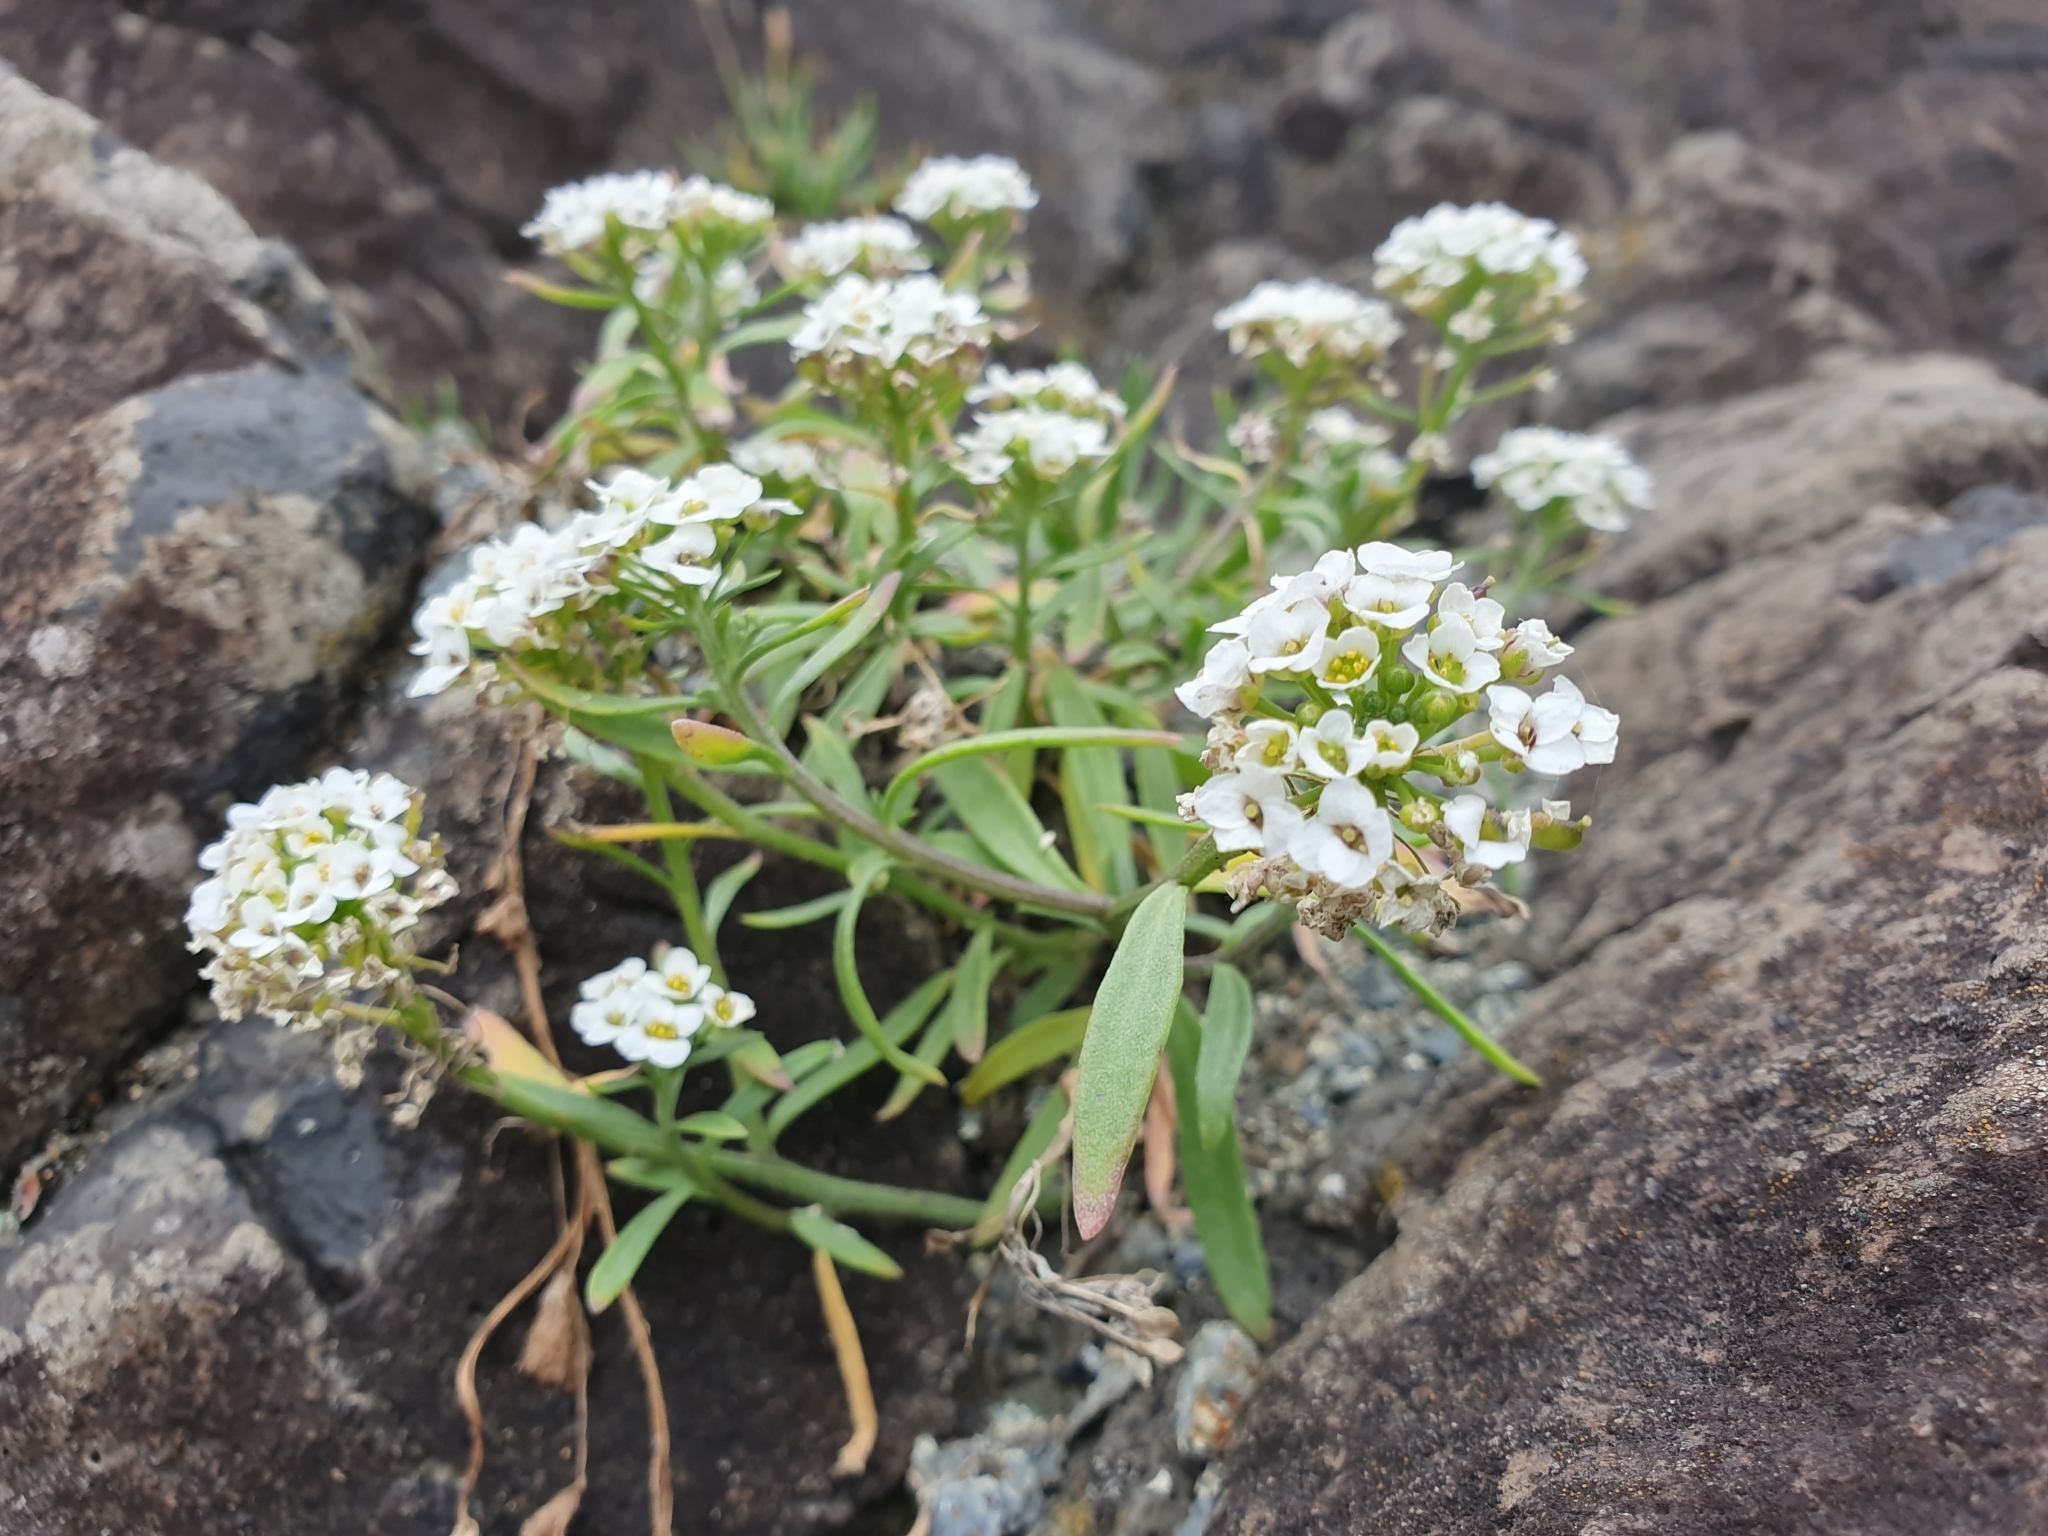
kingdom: Plantae
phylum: Tracheophyta
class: Magnoliopsida
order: Brassicales
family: Brassicaceae
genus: Lobularia
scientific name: Lobularia maritima
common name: Sweet alison
